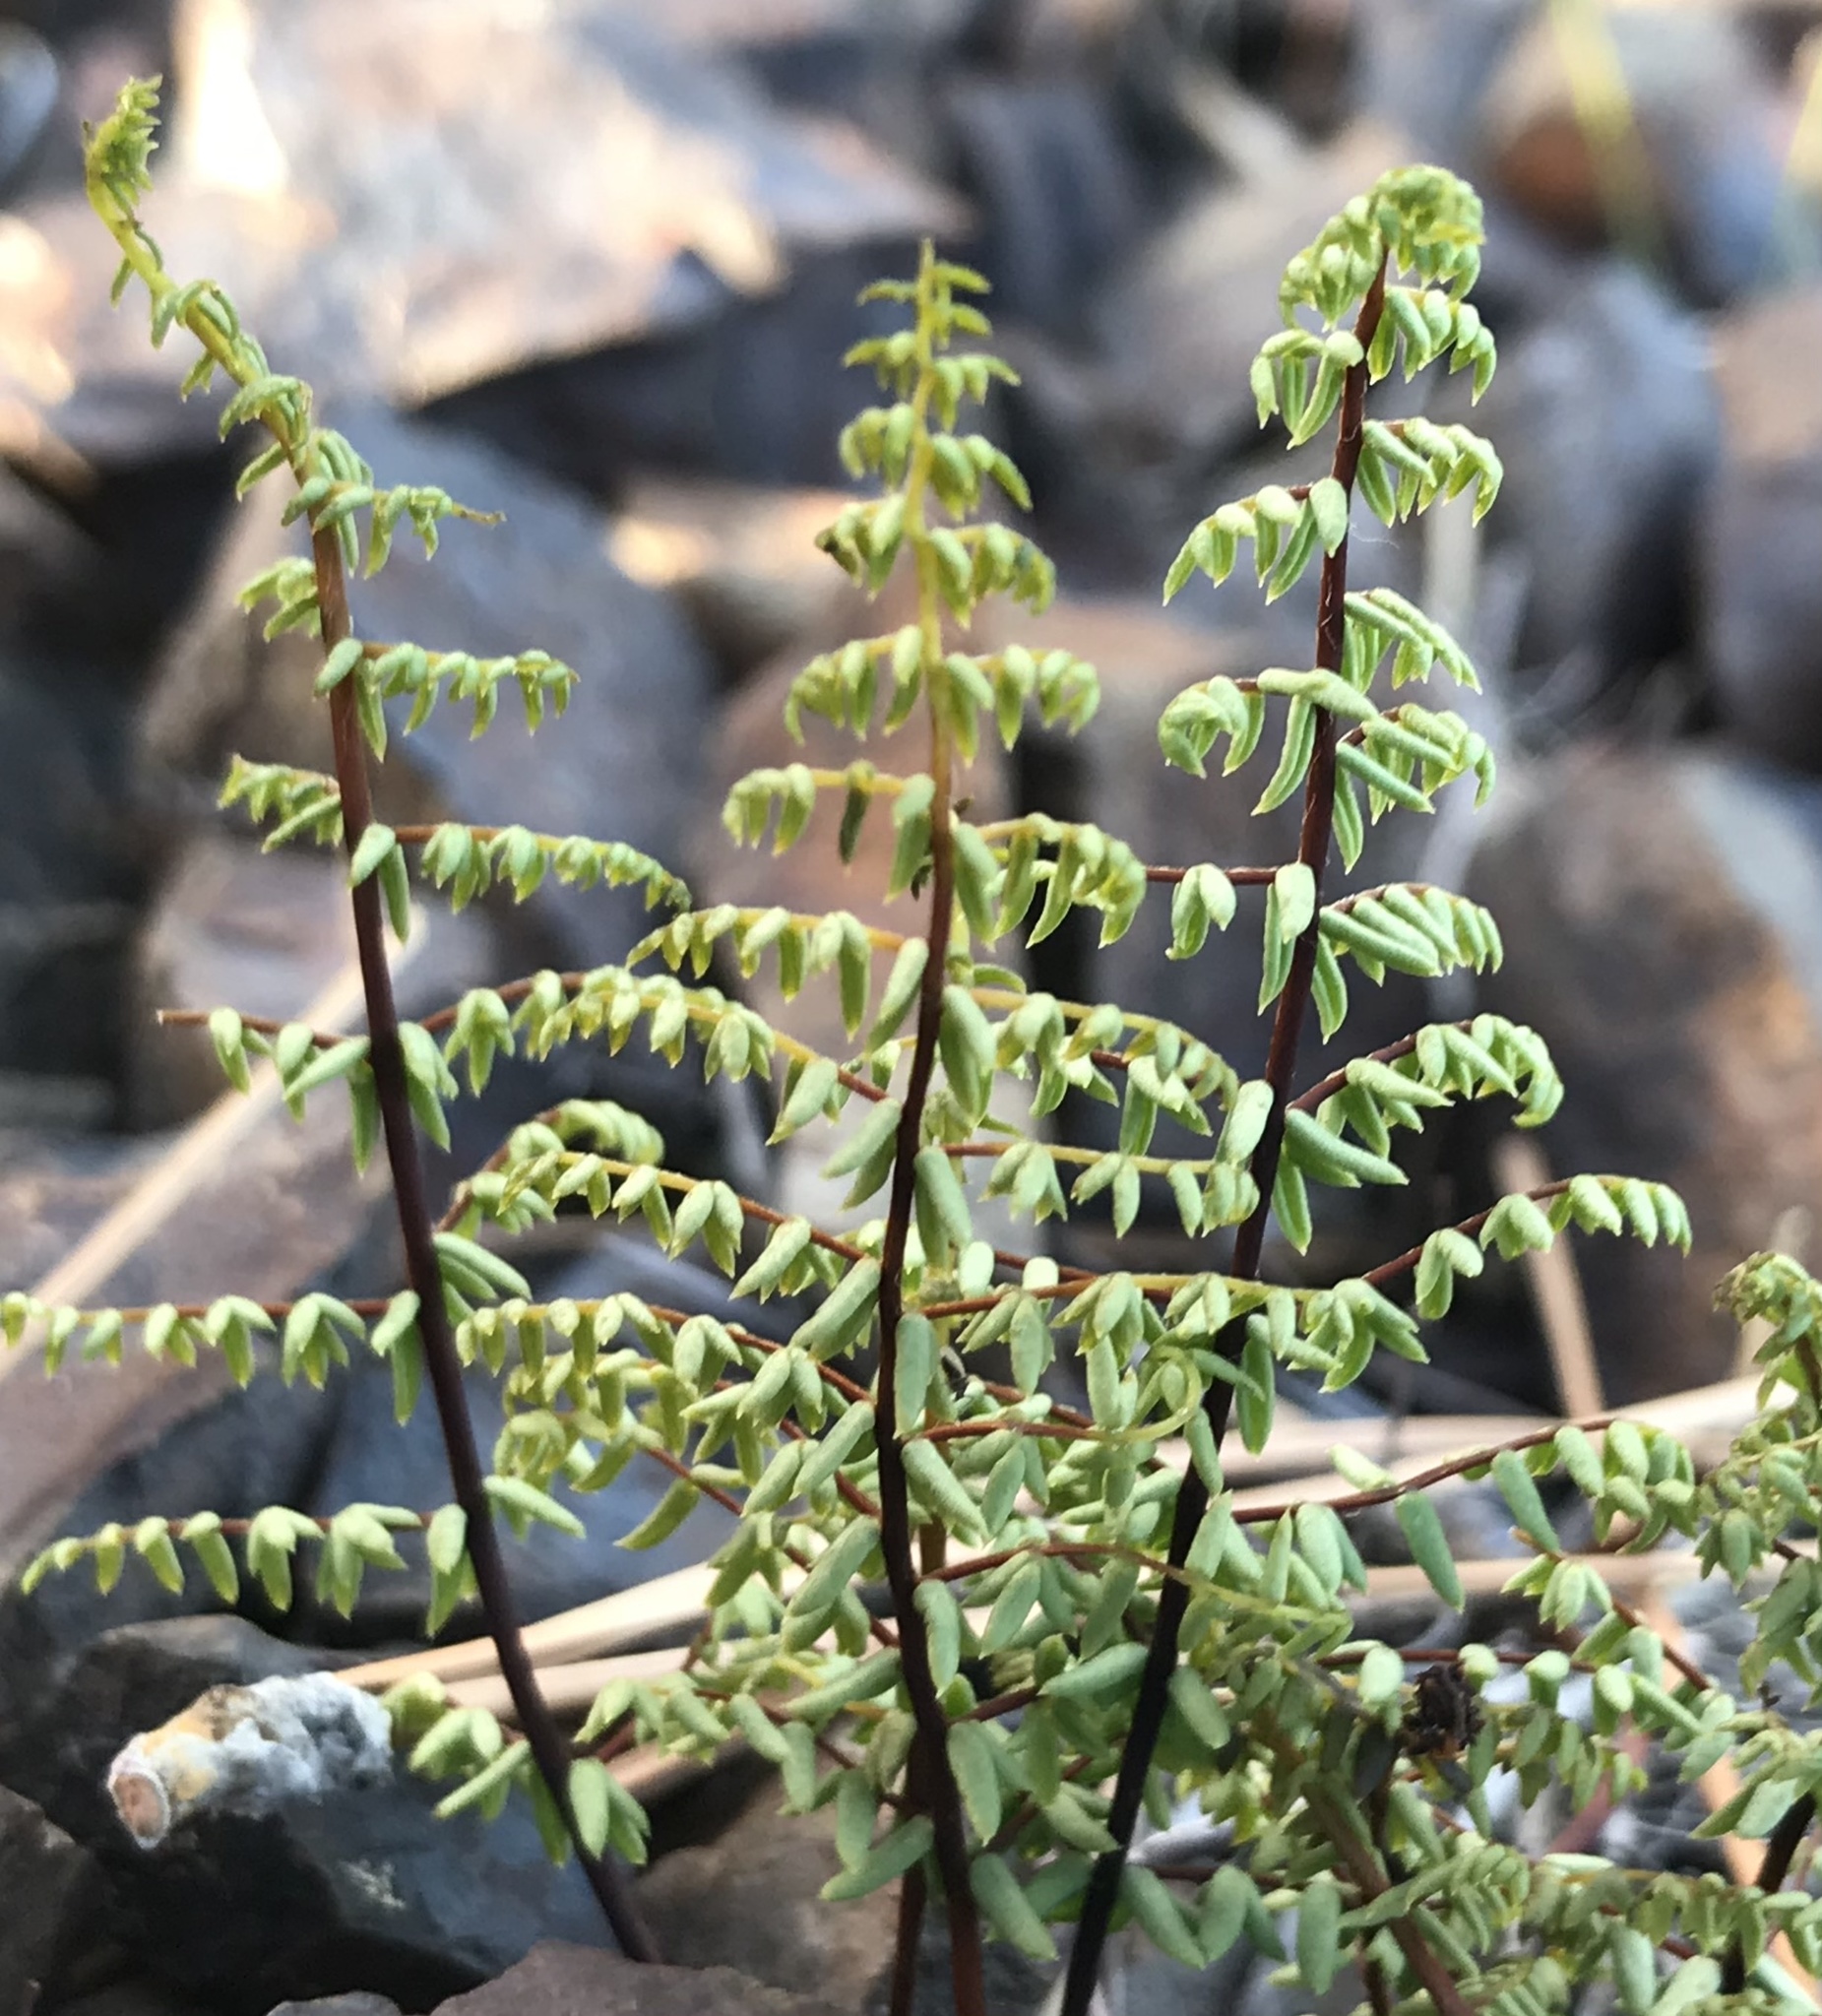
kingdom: Plantae
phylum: Tracheophyta
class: Polypodiopsida
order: Polypodiales
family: Pteridaceae
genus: Pellaea
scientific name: Pellaea mucronata
